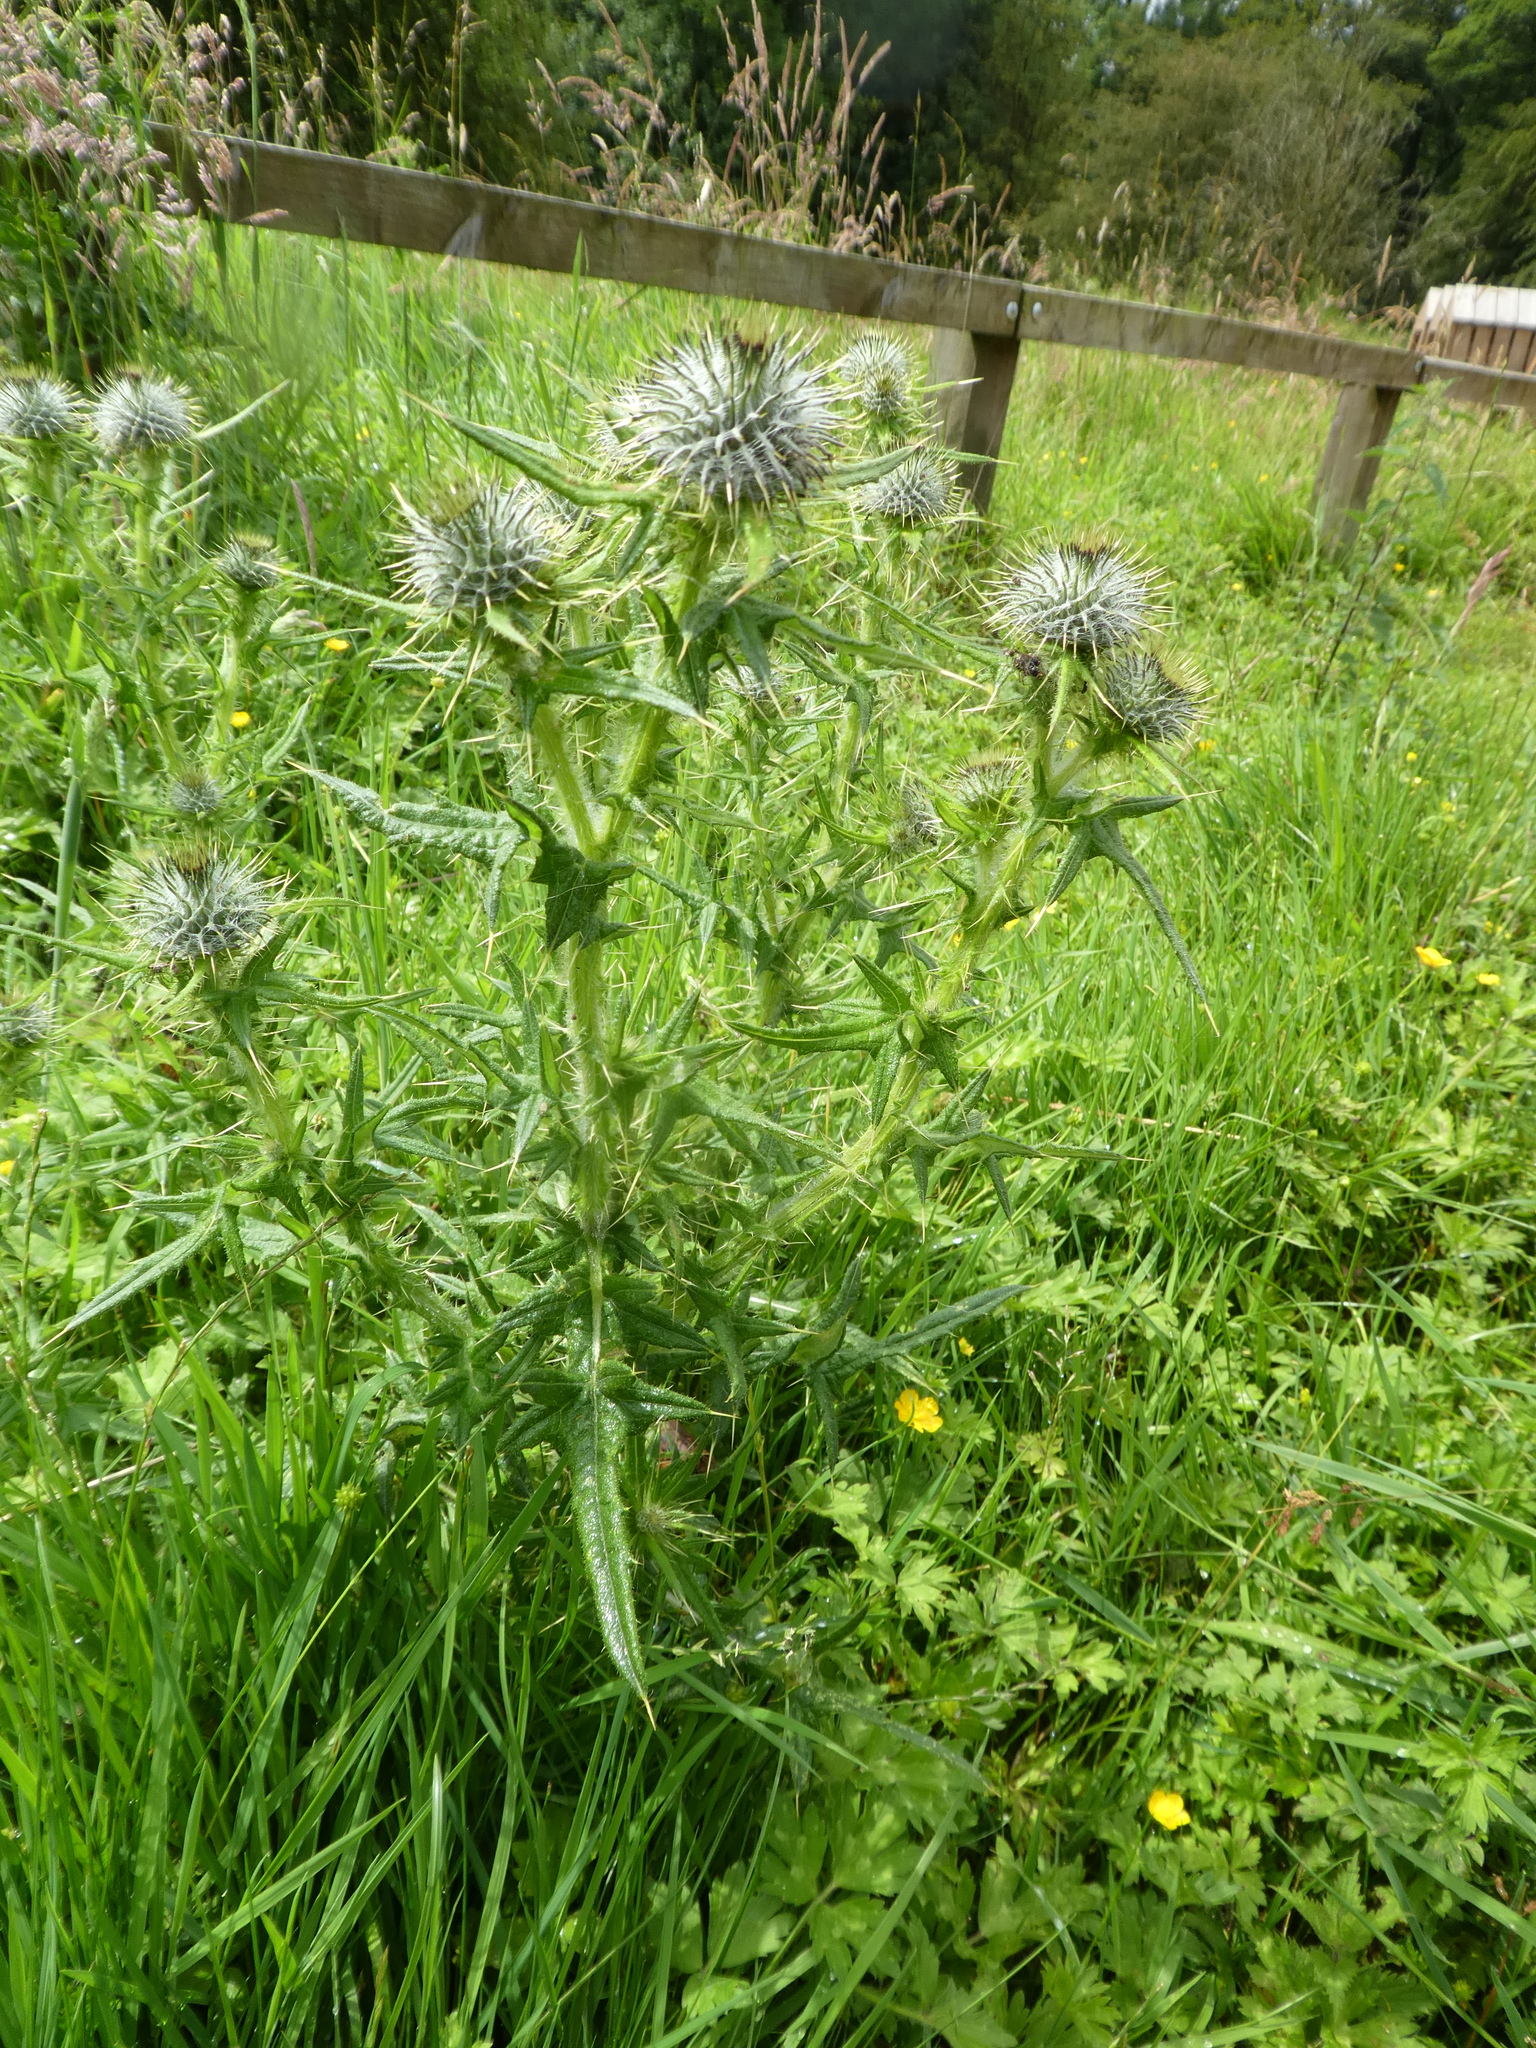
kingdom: Plantae
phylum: Tracheophyta
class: Magnoliopsida
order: Asterales
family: Asteraceae
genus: Cirsium
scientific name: Cirsium vulgare
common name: Bull thistle
